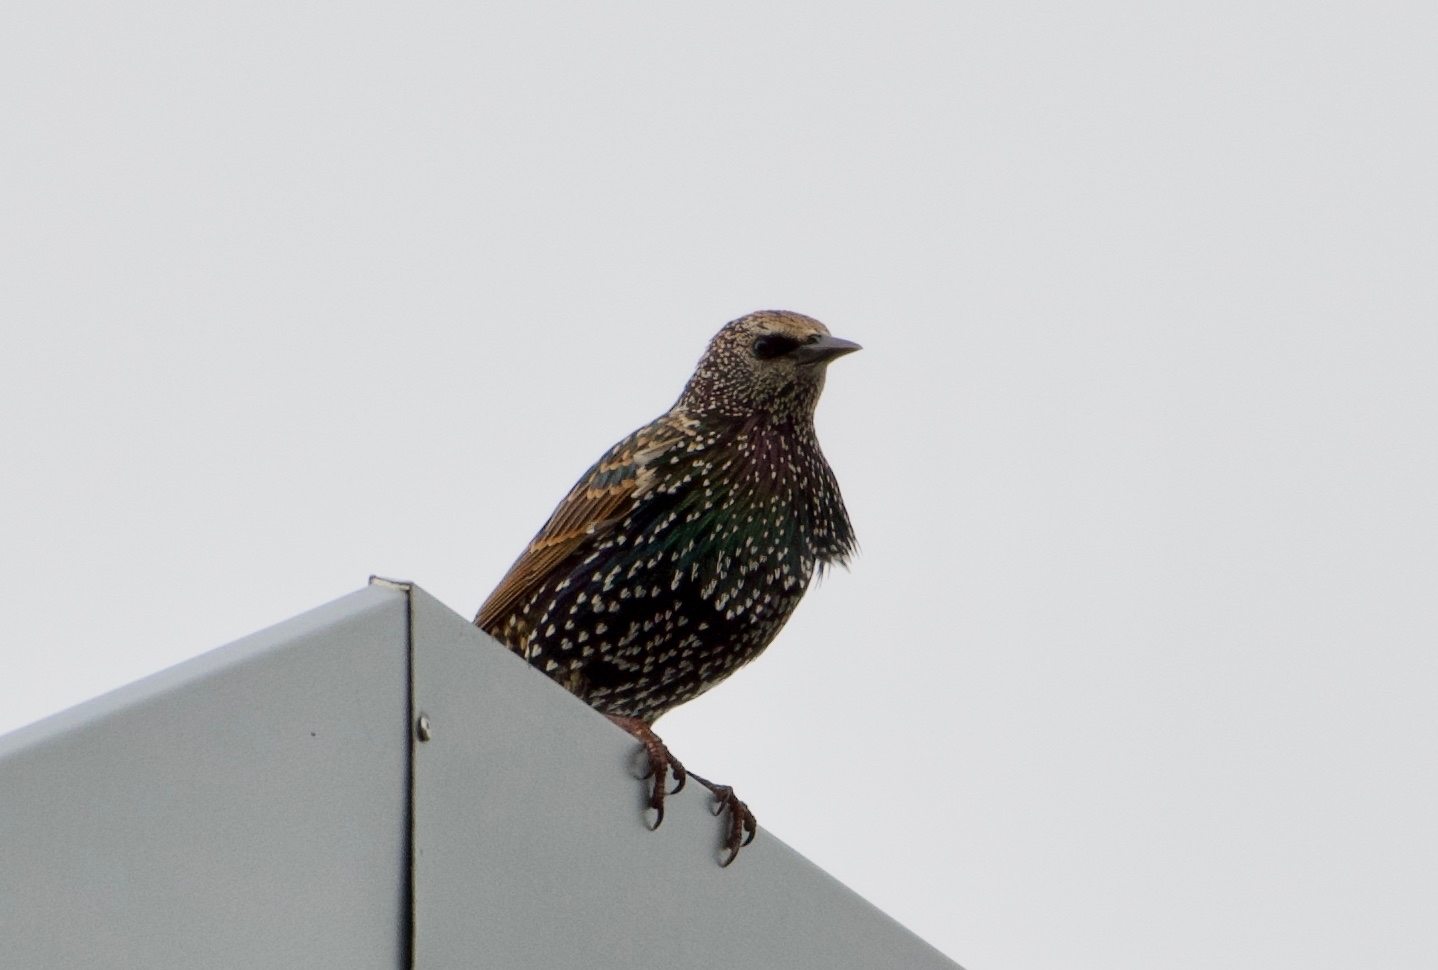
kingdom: Animalia
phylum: Chordata
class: Aves
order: Passeriformes
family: Sturnidae
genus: Sturnus
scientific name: Sturnus vulgaris
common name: Common starling
